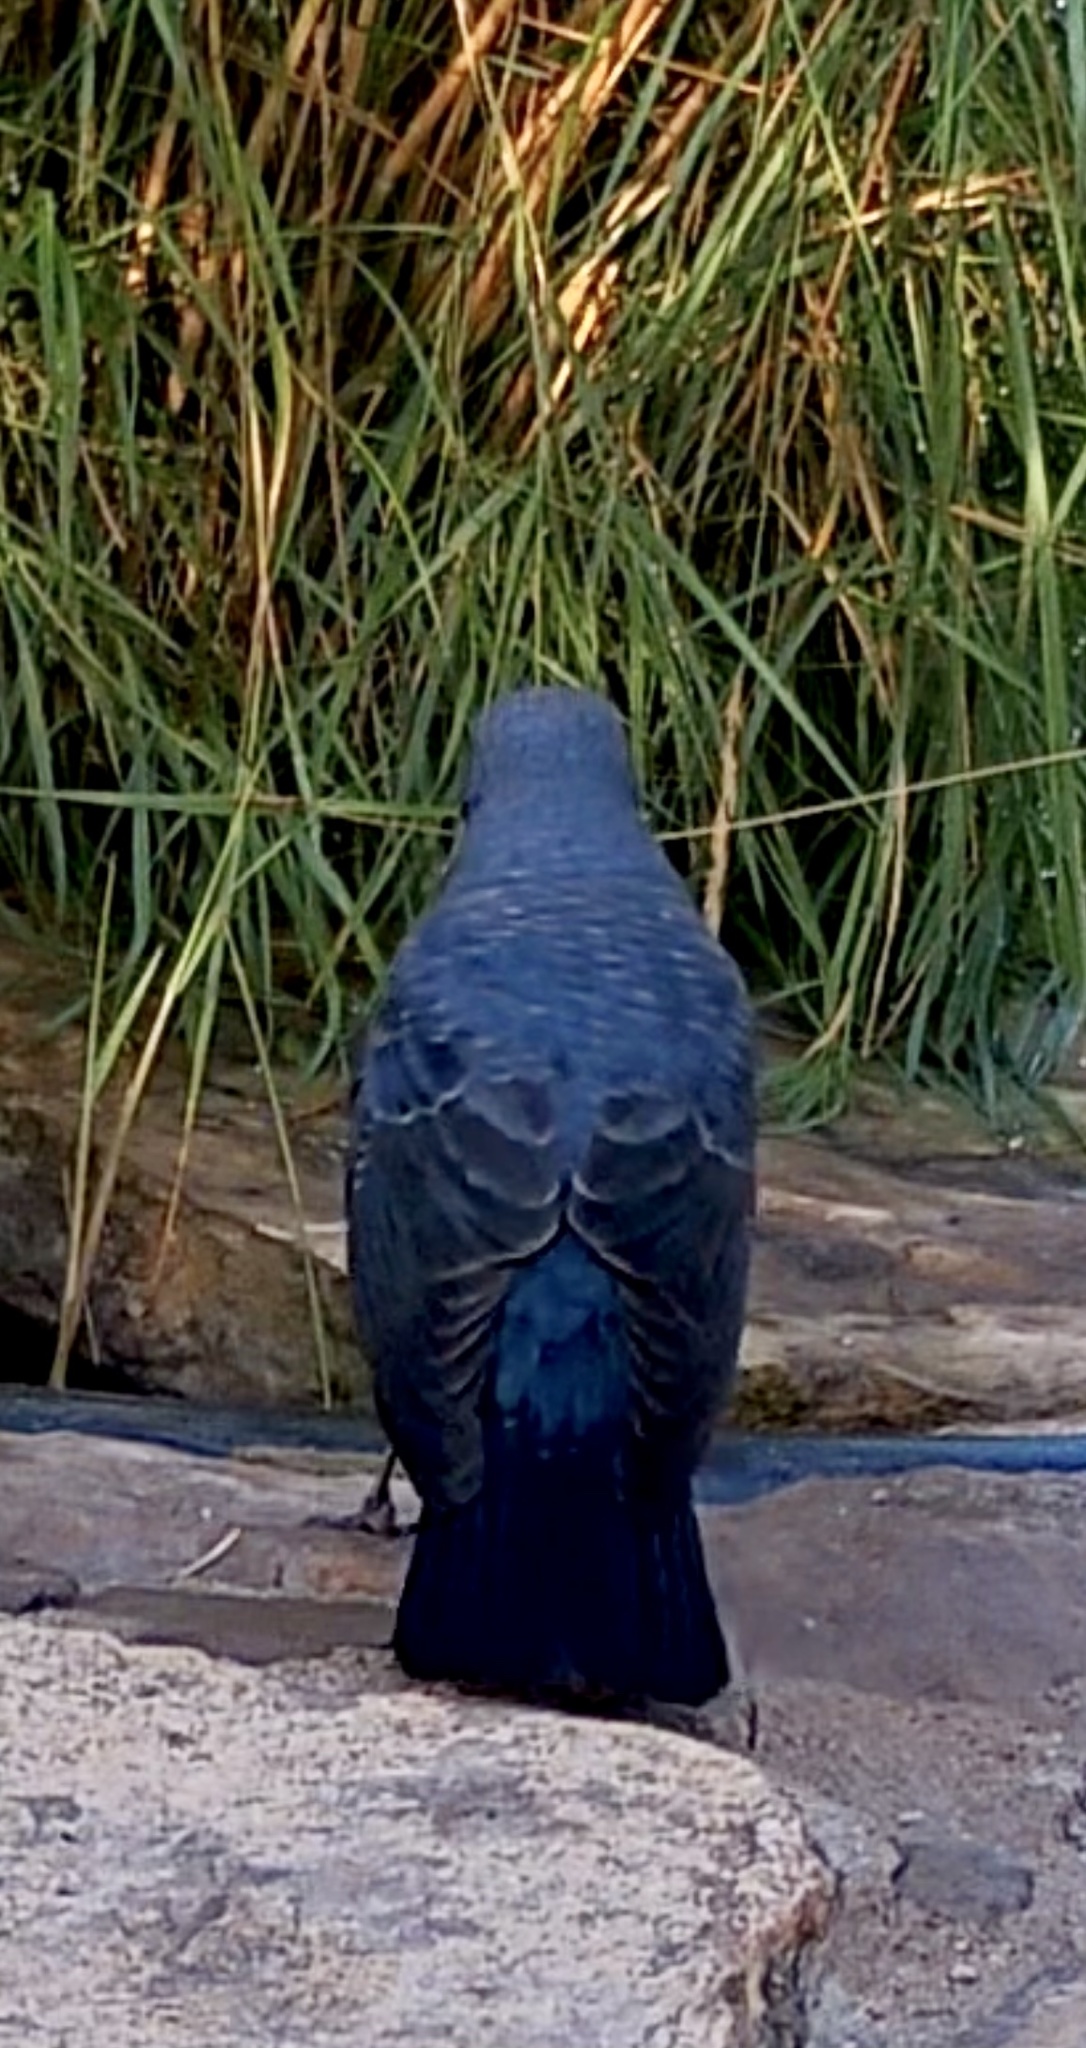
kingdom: Animalia
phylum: Chordata
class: Aves
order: Passeriformes
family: Muscicapidae
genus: Monticola
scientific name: Monticola solitarius
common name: Blue rock thrush
